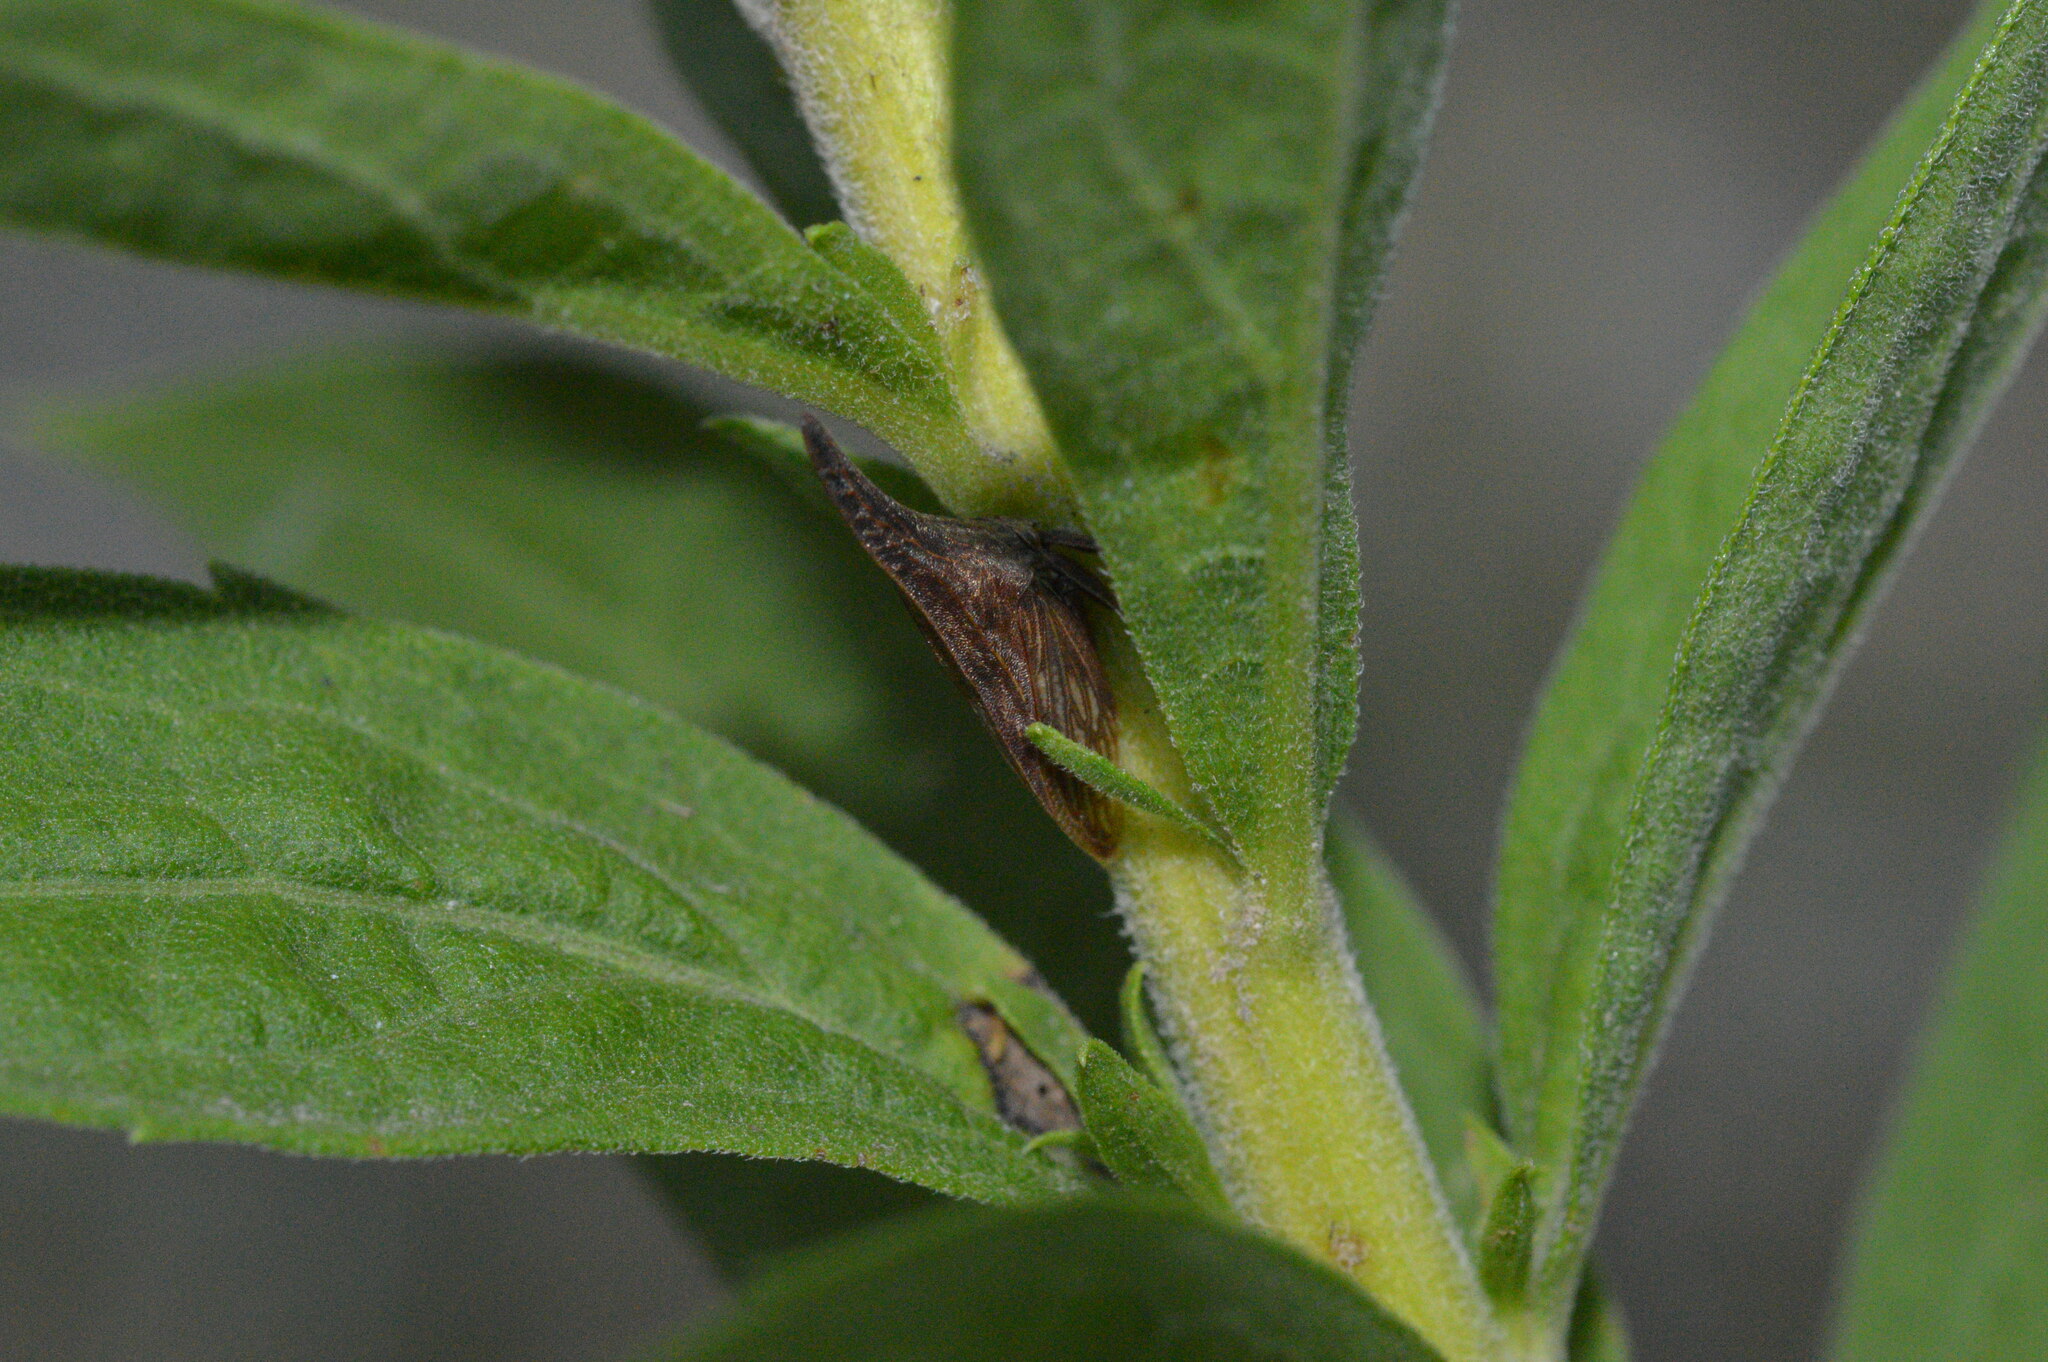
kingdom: Animalia
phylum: Arthropoda
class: Insecta
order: Hemiptera
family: Membracidae
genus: Enchenopa
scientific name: Enchenopa latipes
